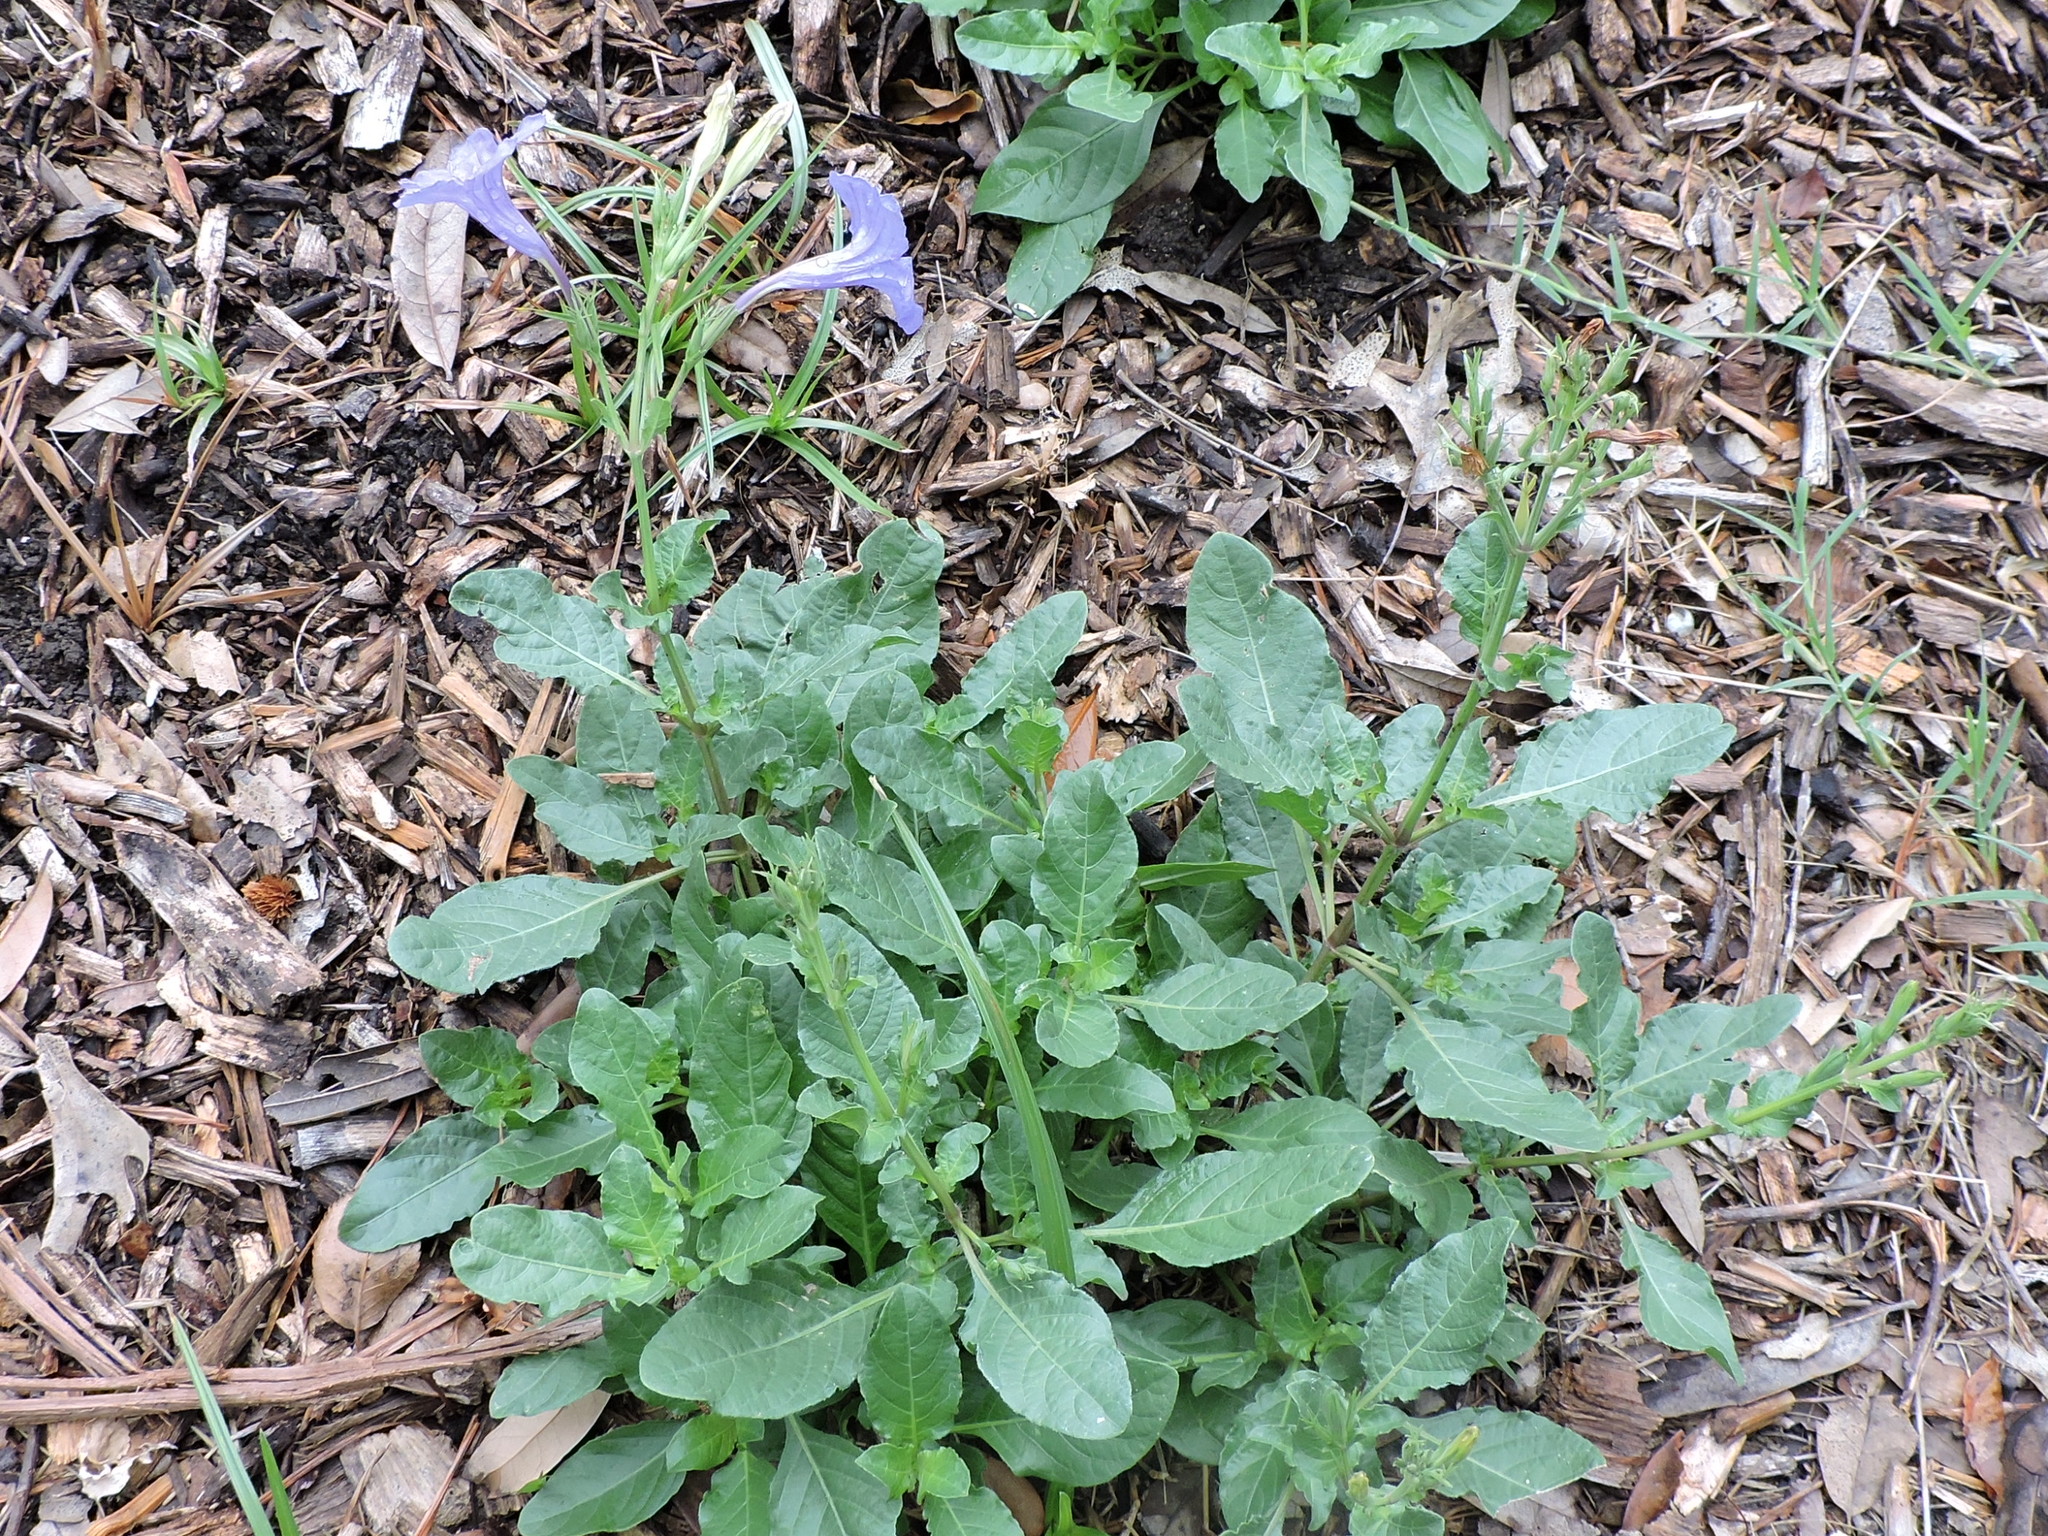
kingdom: Plantae
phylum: Tracheophyta
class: Magnoliopsida
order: Lamiales
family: Acanthaceae
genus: Ruellia
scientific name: Ruellia ciliatiflora
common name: Hairyflower wild petunia
